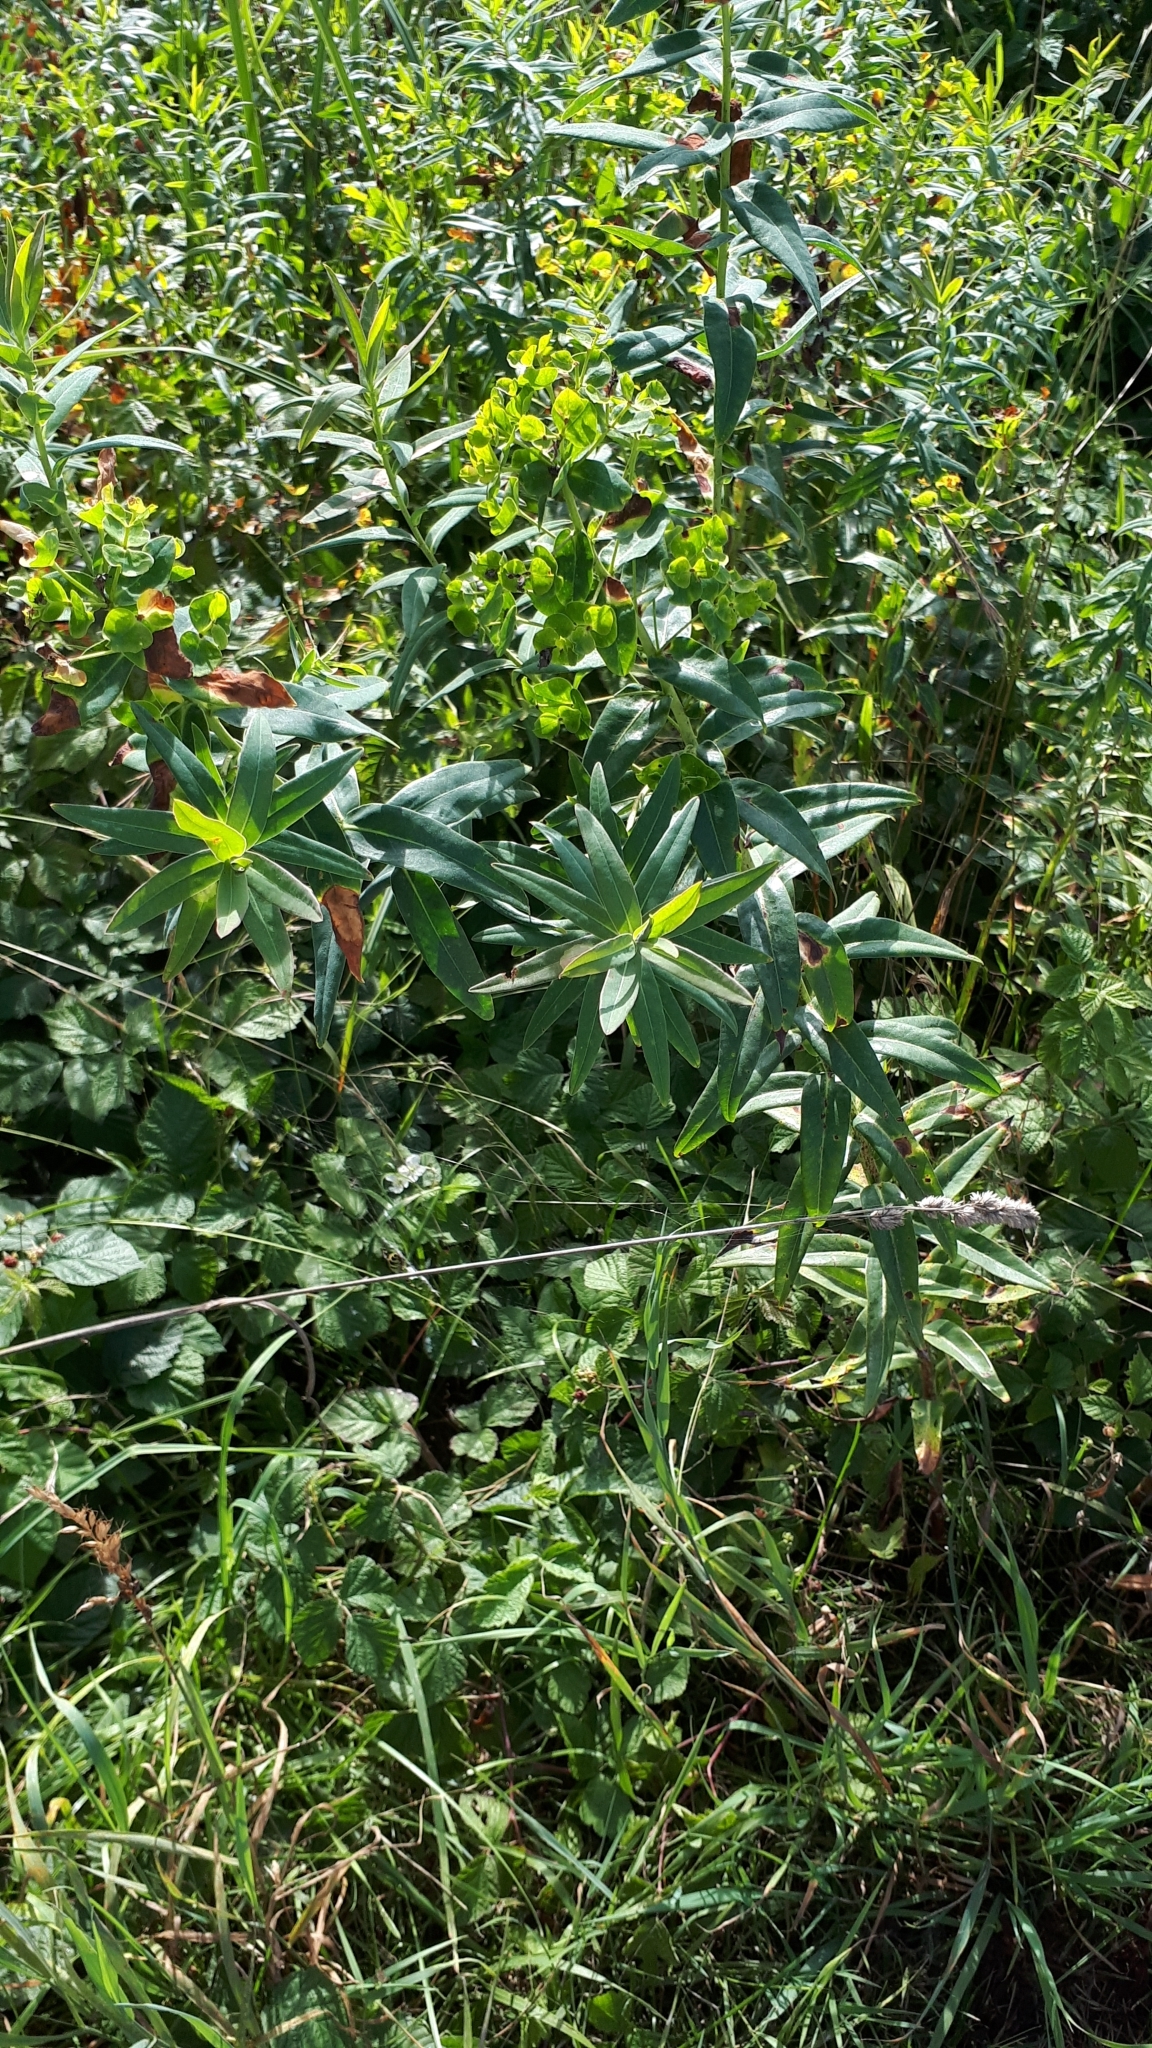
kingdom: Plantae
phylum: Tracheophyta
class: Magnoliopsida
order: Malpighiales
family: Euphorbiaceae
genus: Euphorbia
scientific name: Euphorbia lucida
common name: Shining spurge
